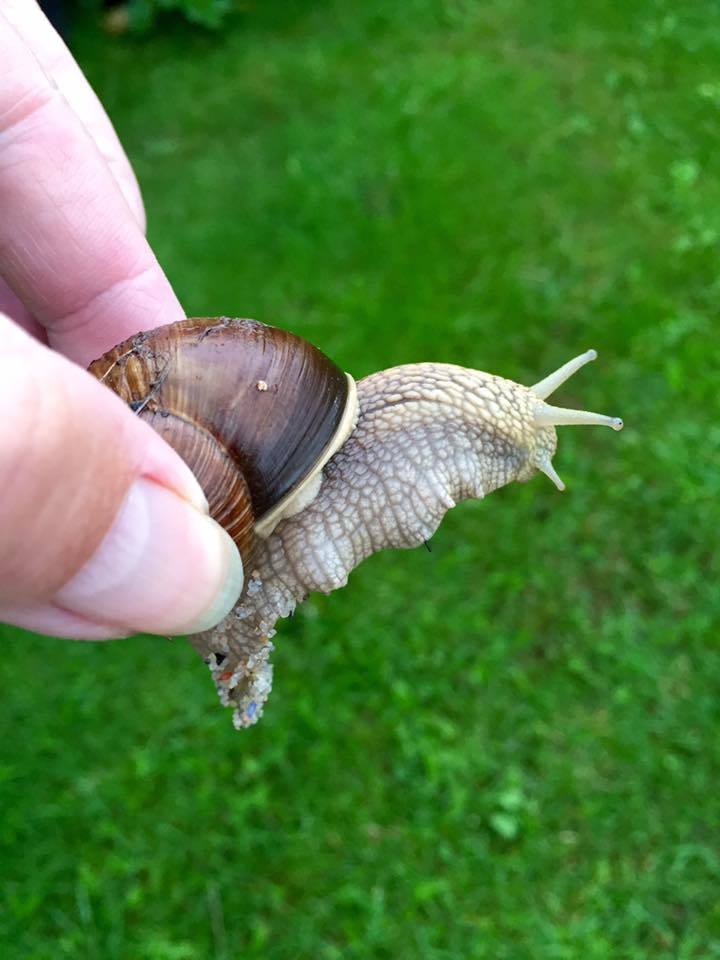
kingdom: Animalia
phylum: Mollusca
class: Gastropoda
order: Stylommatophora
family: Helicidae
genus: Helix
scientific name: Helix pomatia
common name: Roman snail
